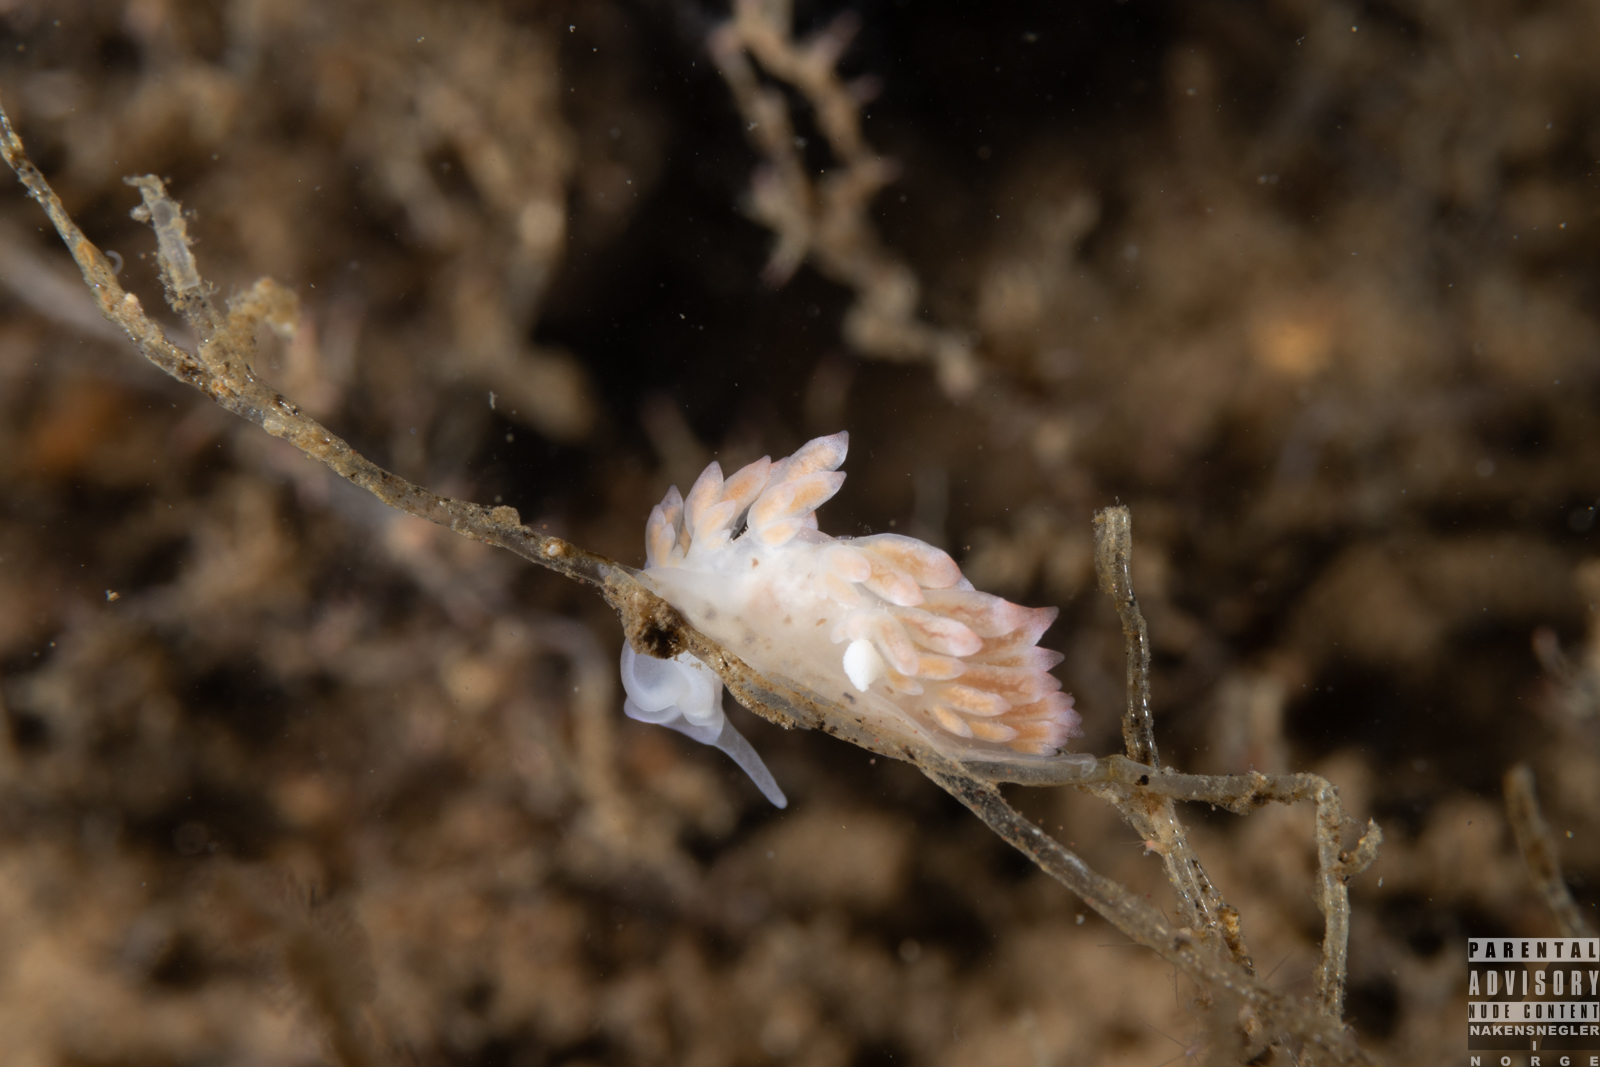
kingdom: Animalia
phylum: Mollusca
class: Gastropoda
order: Nudibranchia
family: Trinchesiidae
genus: Catriona
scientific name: Catriona aurantia
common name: Corange-tip cuthona
